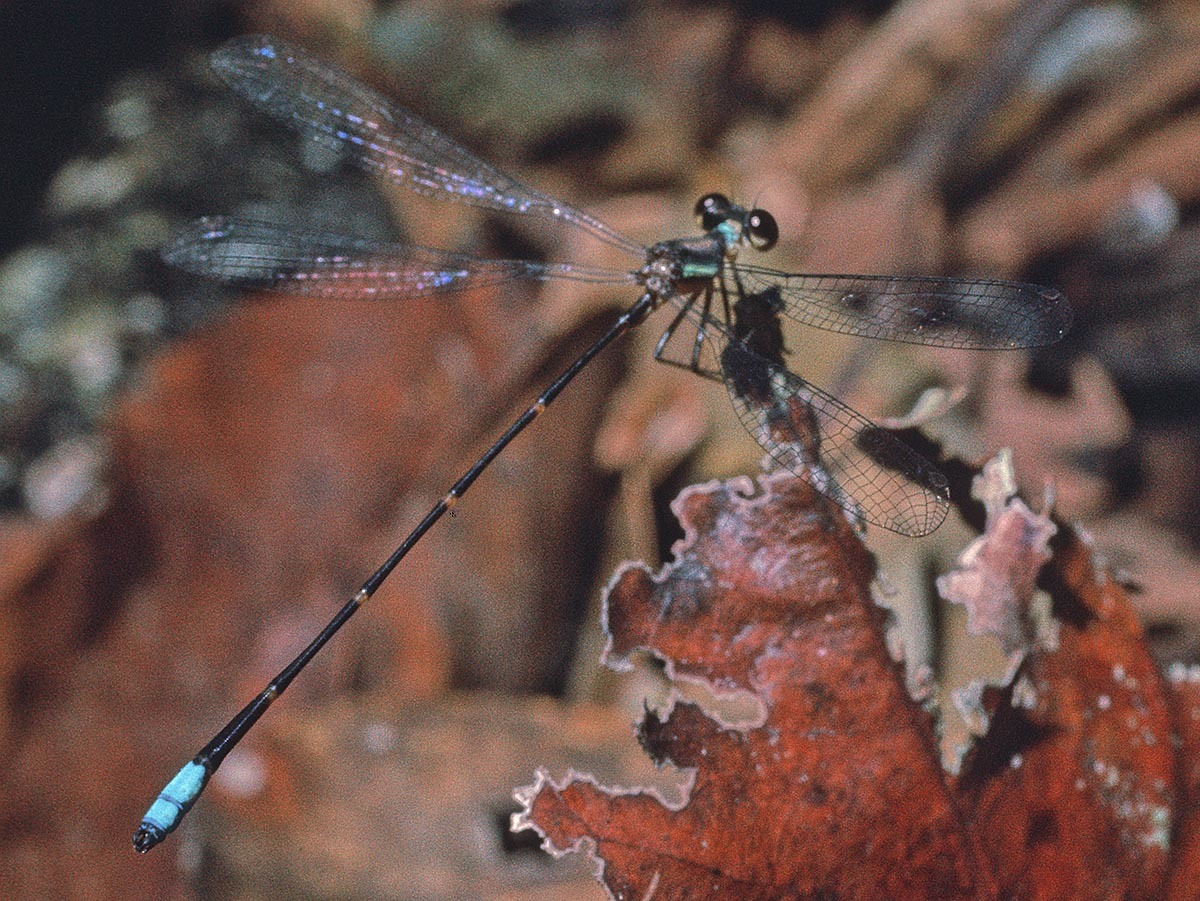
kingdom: Animalia
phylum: Arthropoda
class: Insecta
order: Odonata
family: Platystictidae
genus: Palaemnema
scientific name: Palaemnema collaris
